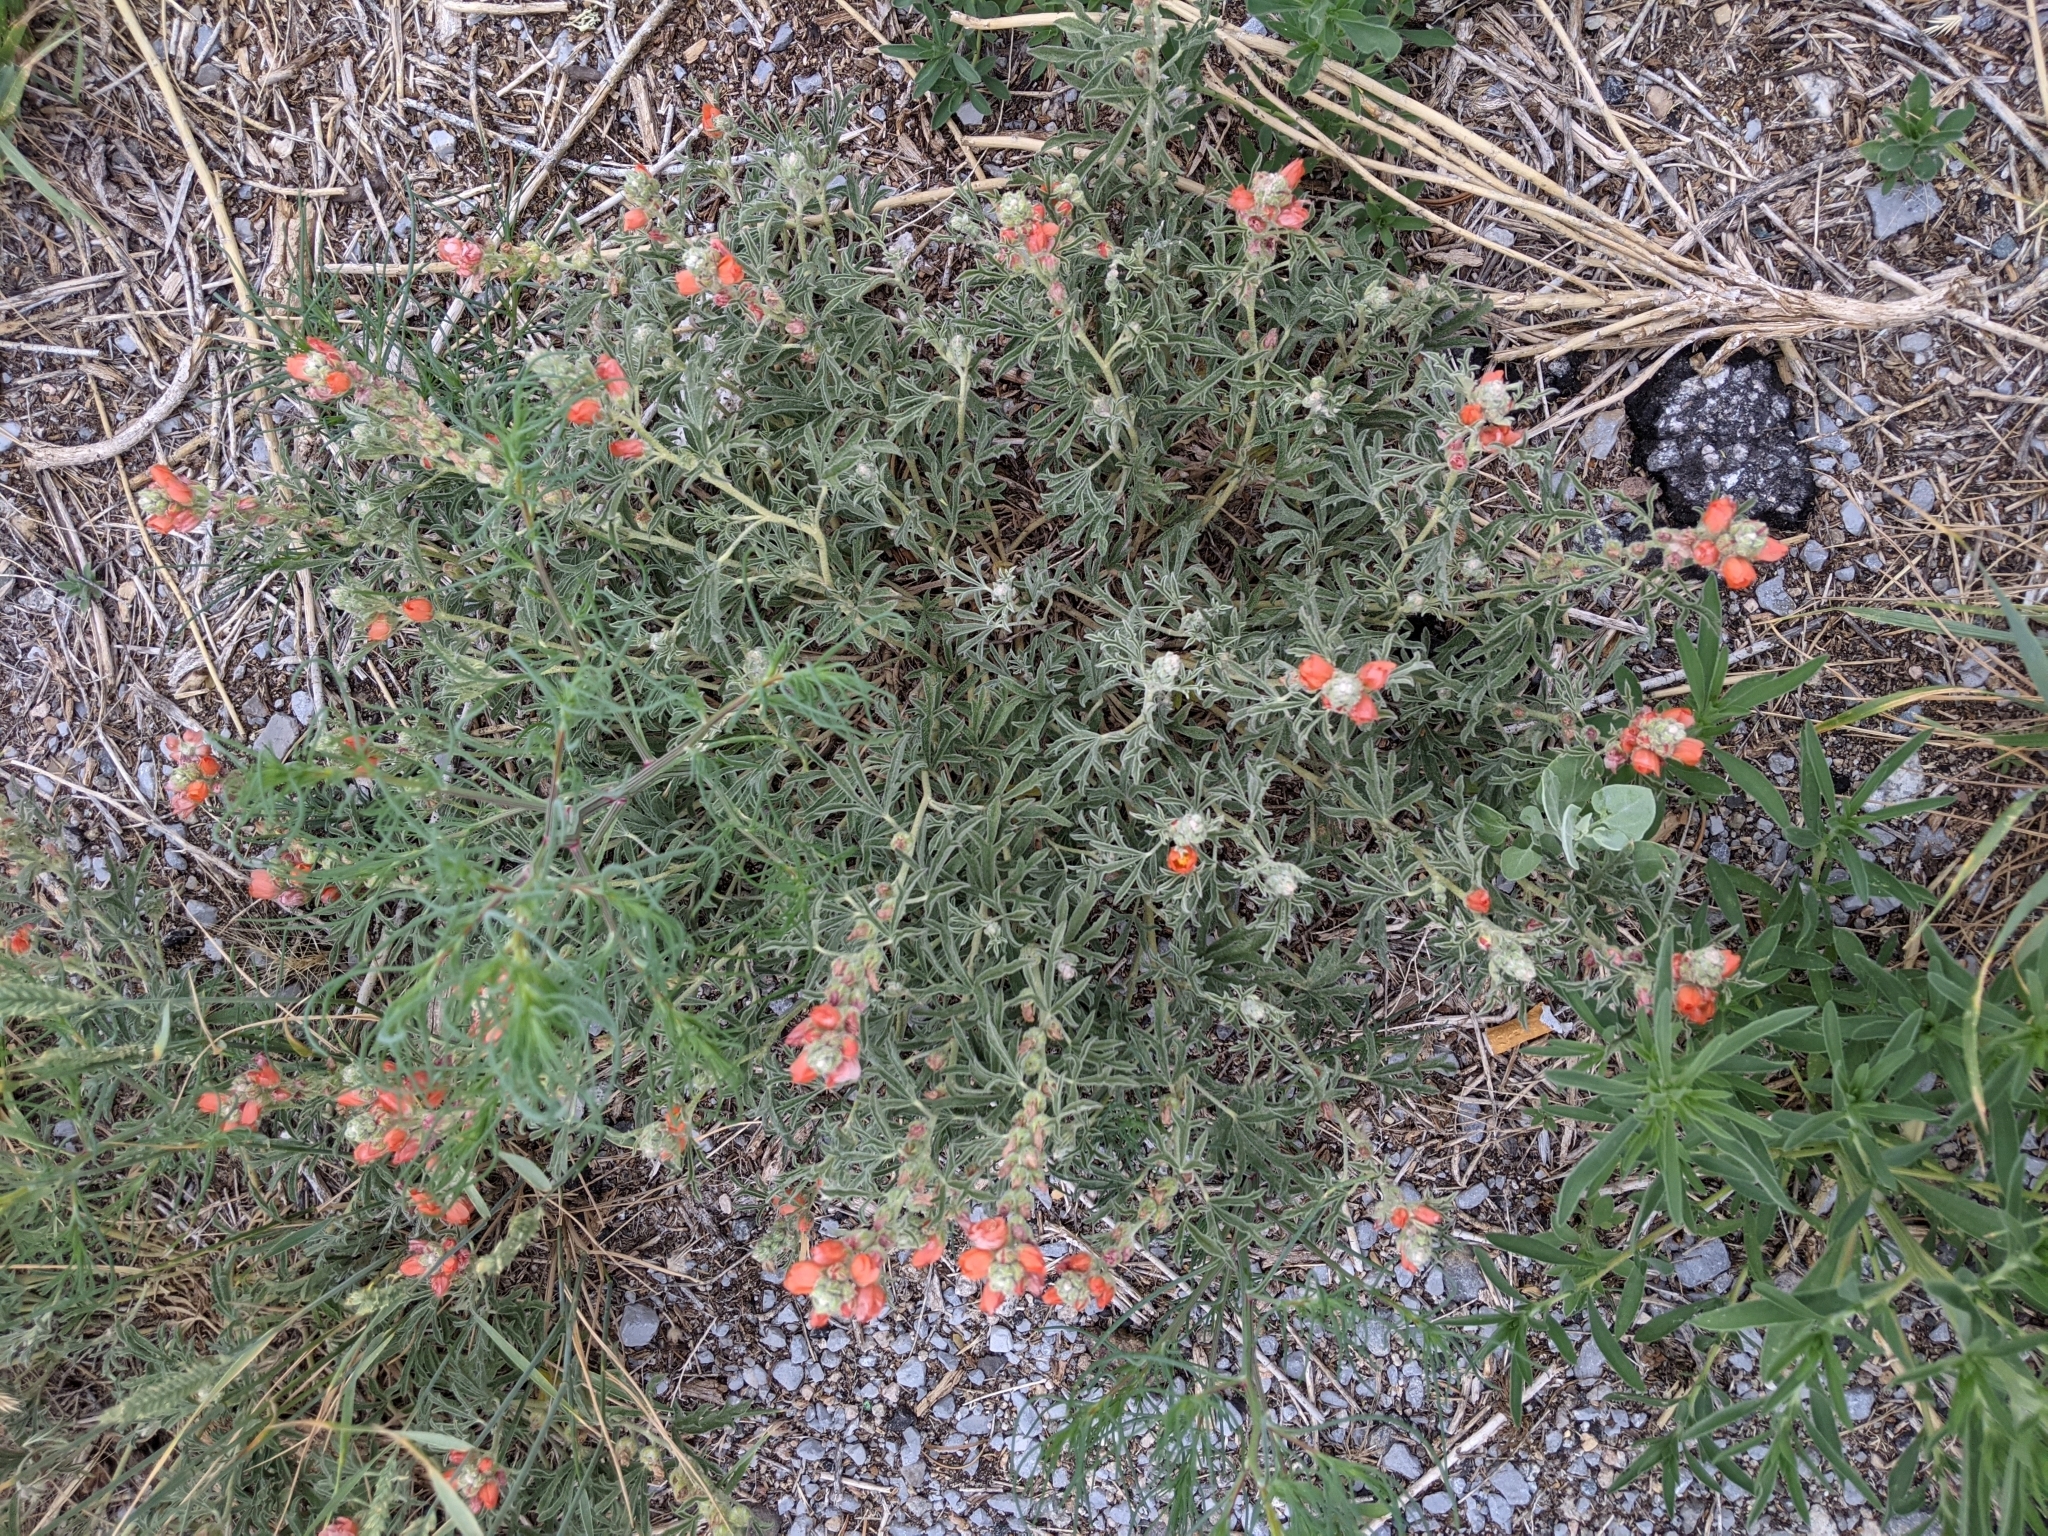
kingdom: Plantae
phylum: Tracheophyta
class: Magnoliopsida
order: Malvales
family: Malvaceae
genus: Sphaeralcea
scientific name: Sphaeralcea coccinea
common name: Moss-rose
